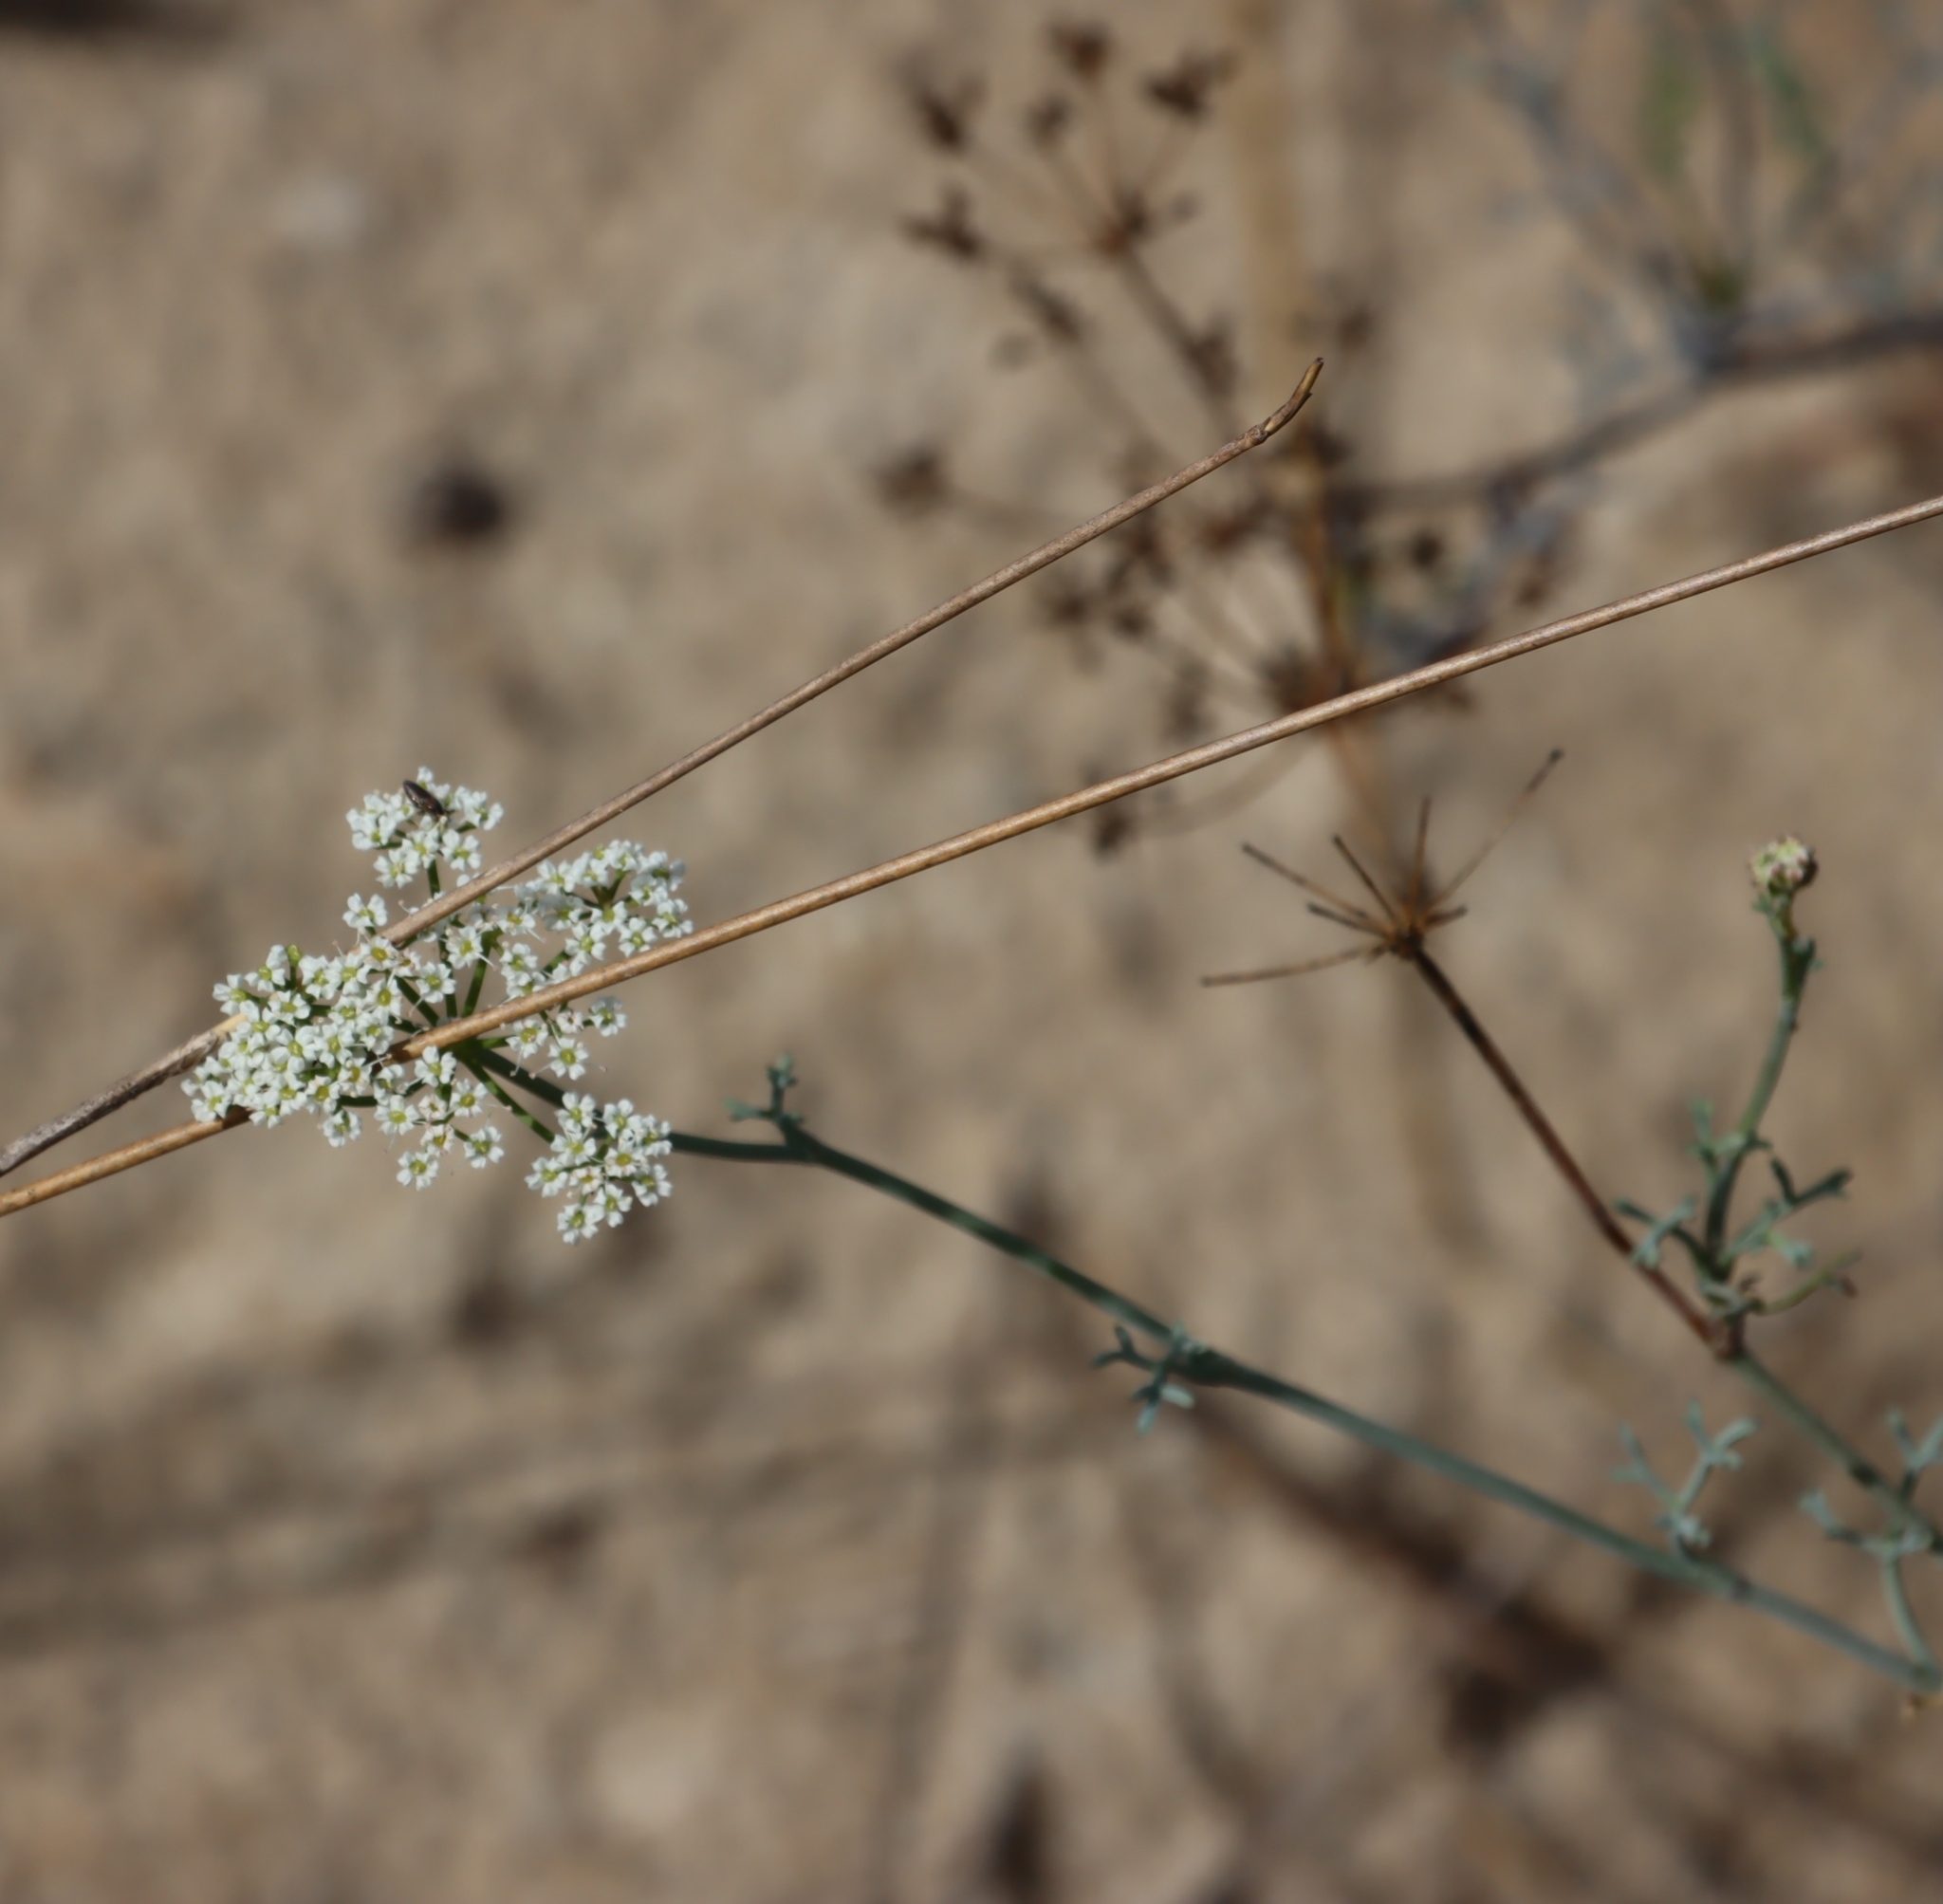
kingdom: Plantae
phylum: Tracheophyta
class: Magnoliopsida
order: Apiales
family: Apiaceae
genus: Dasispermum
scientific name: Dasispermum perennans
